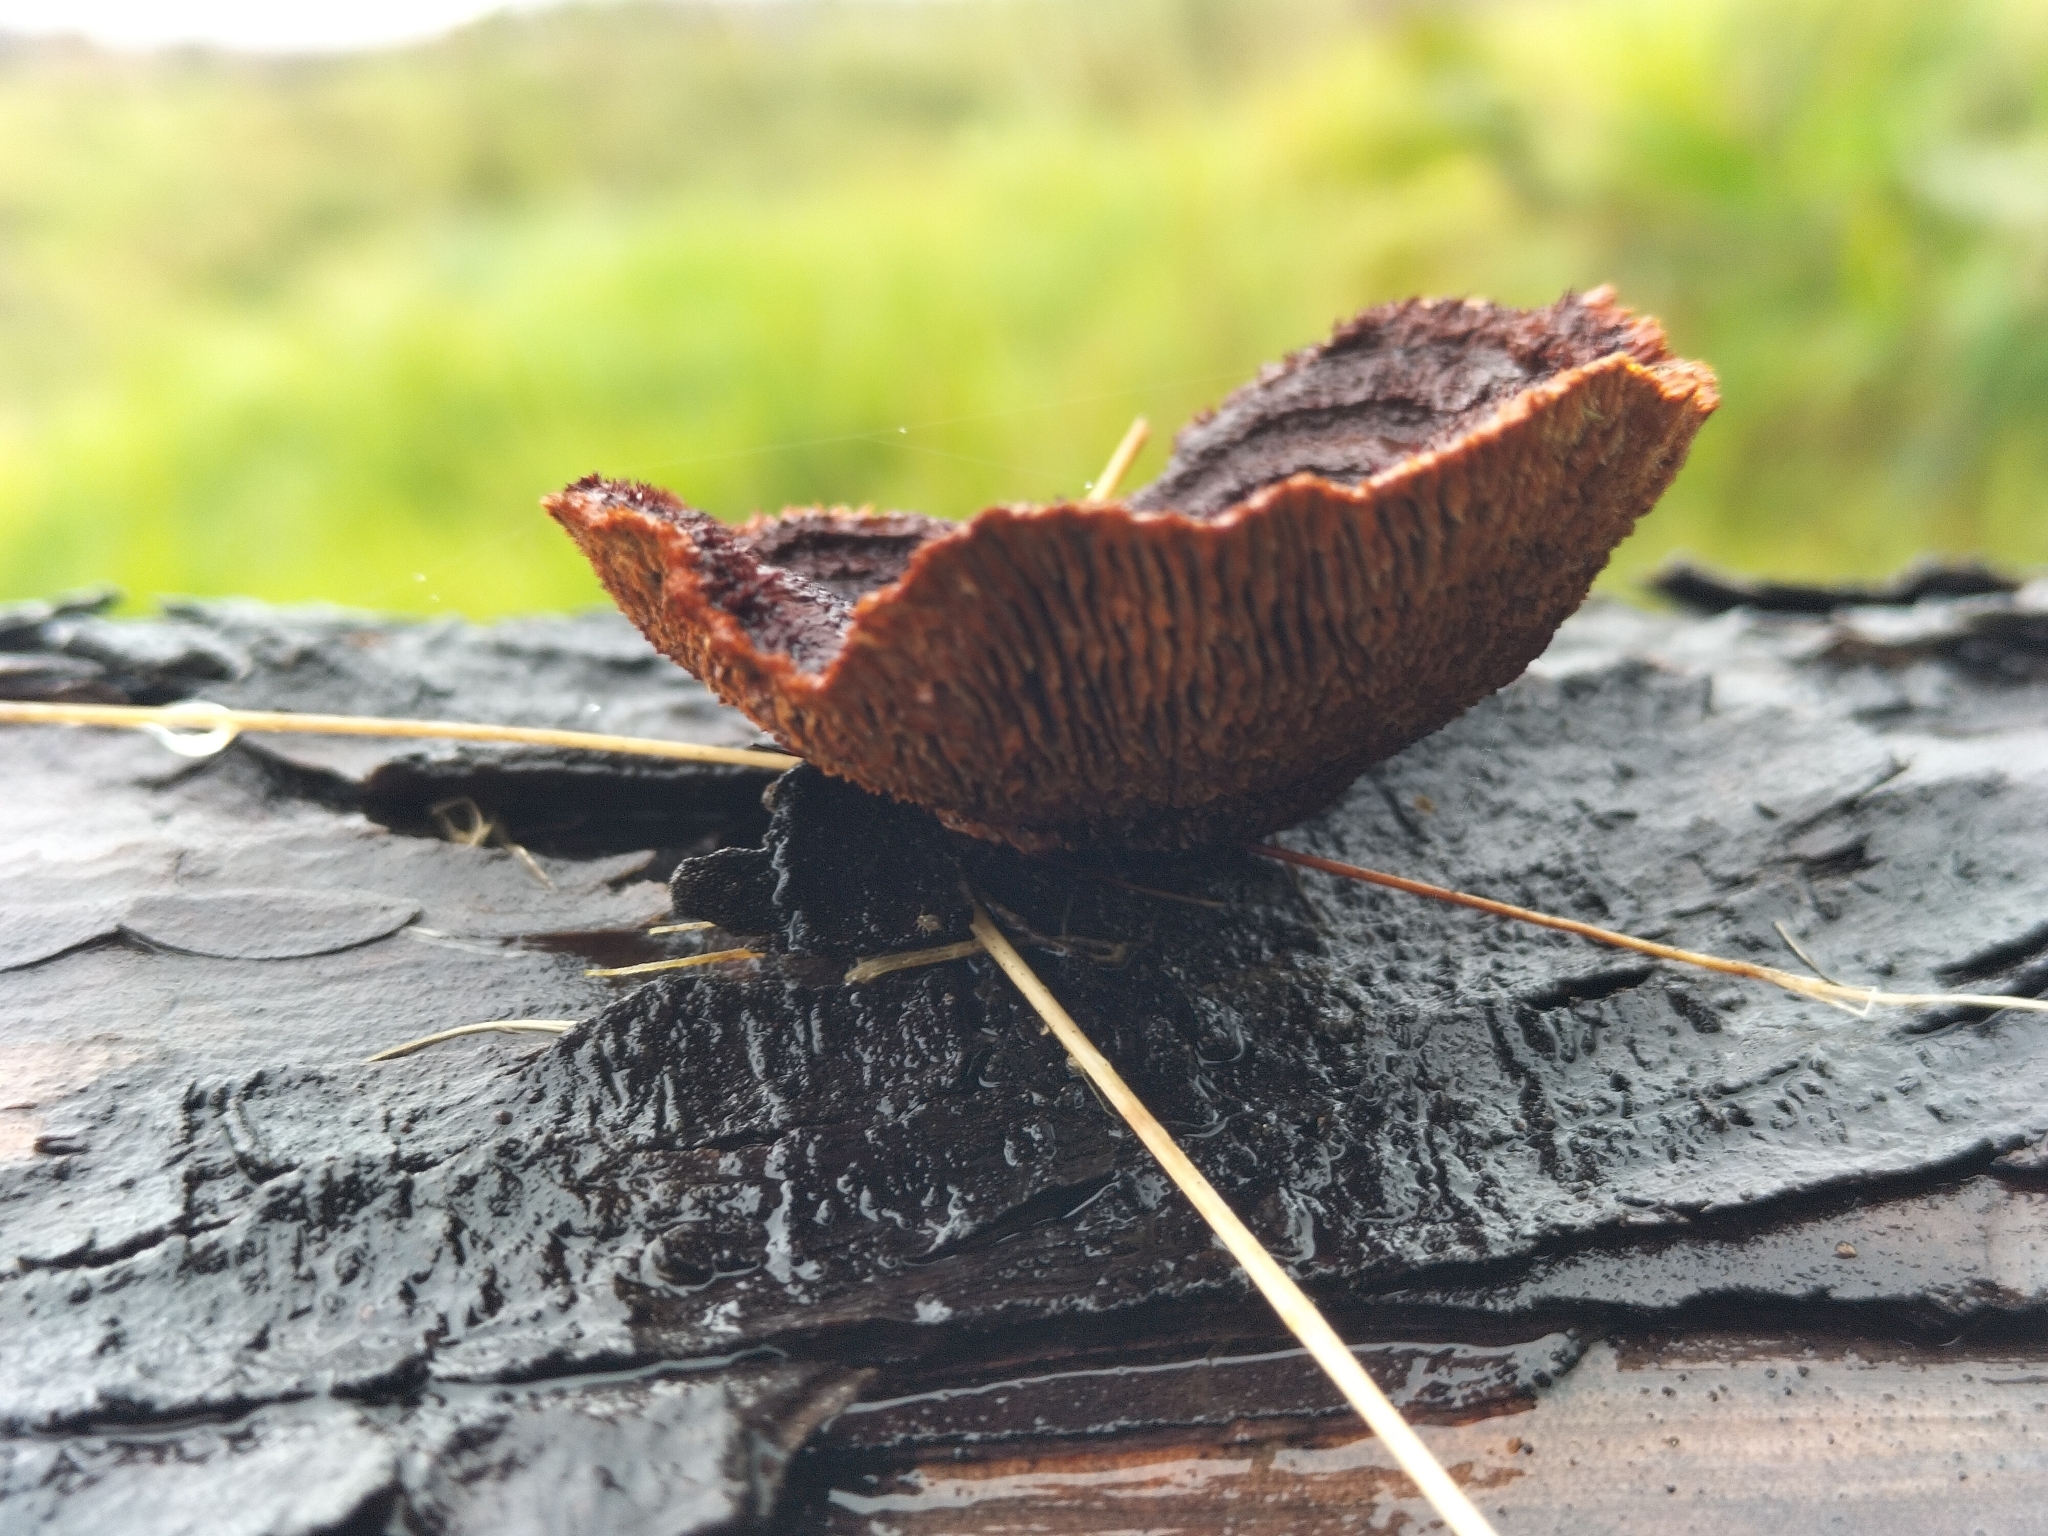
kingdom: Fungi
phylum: Basidiomycota
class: Agaricomycetes
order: Gloeophyllales
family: Gloeophyllaceae
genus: Gloeophyllum
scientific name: Gloeophyllum sepiarium
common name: Conifer mazegill
